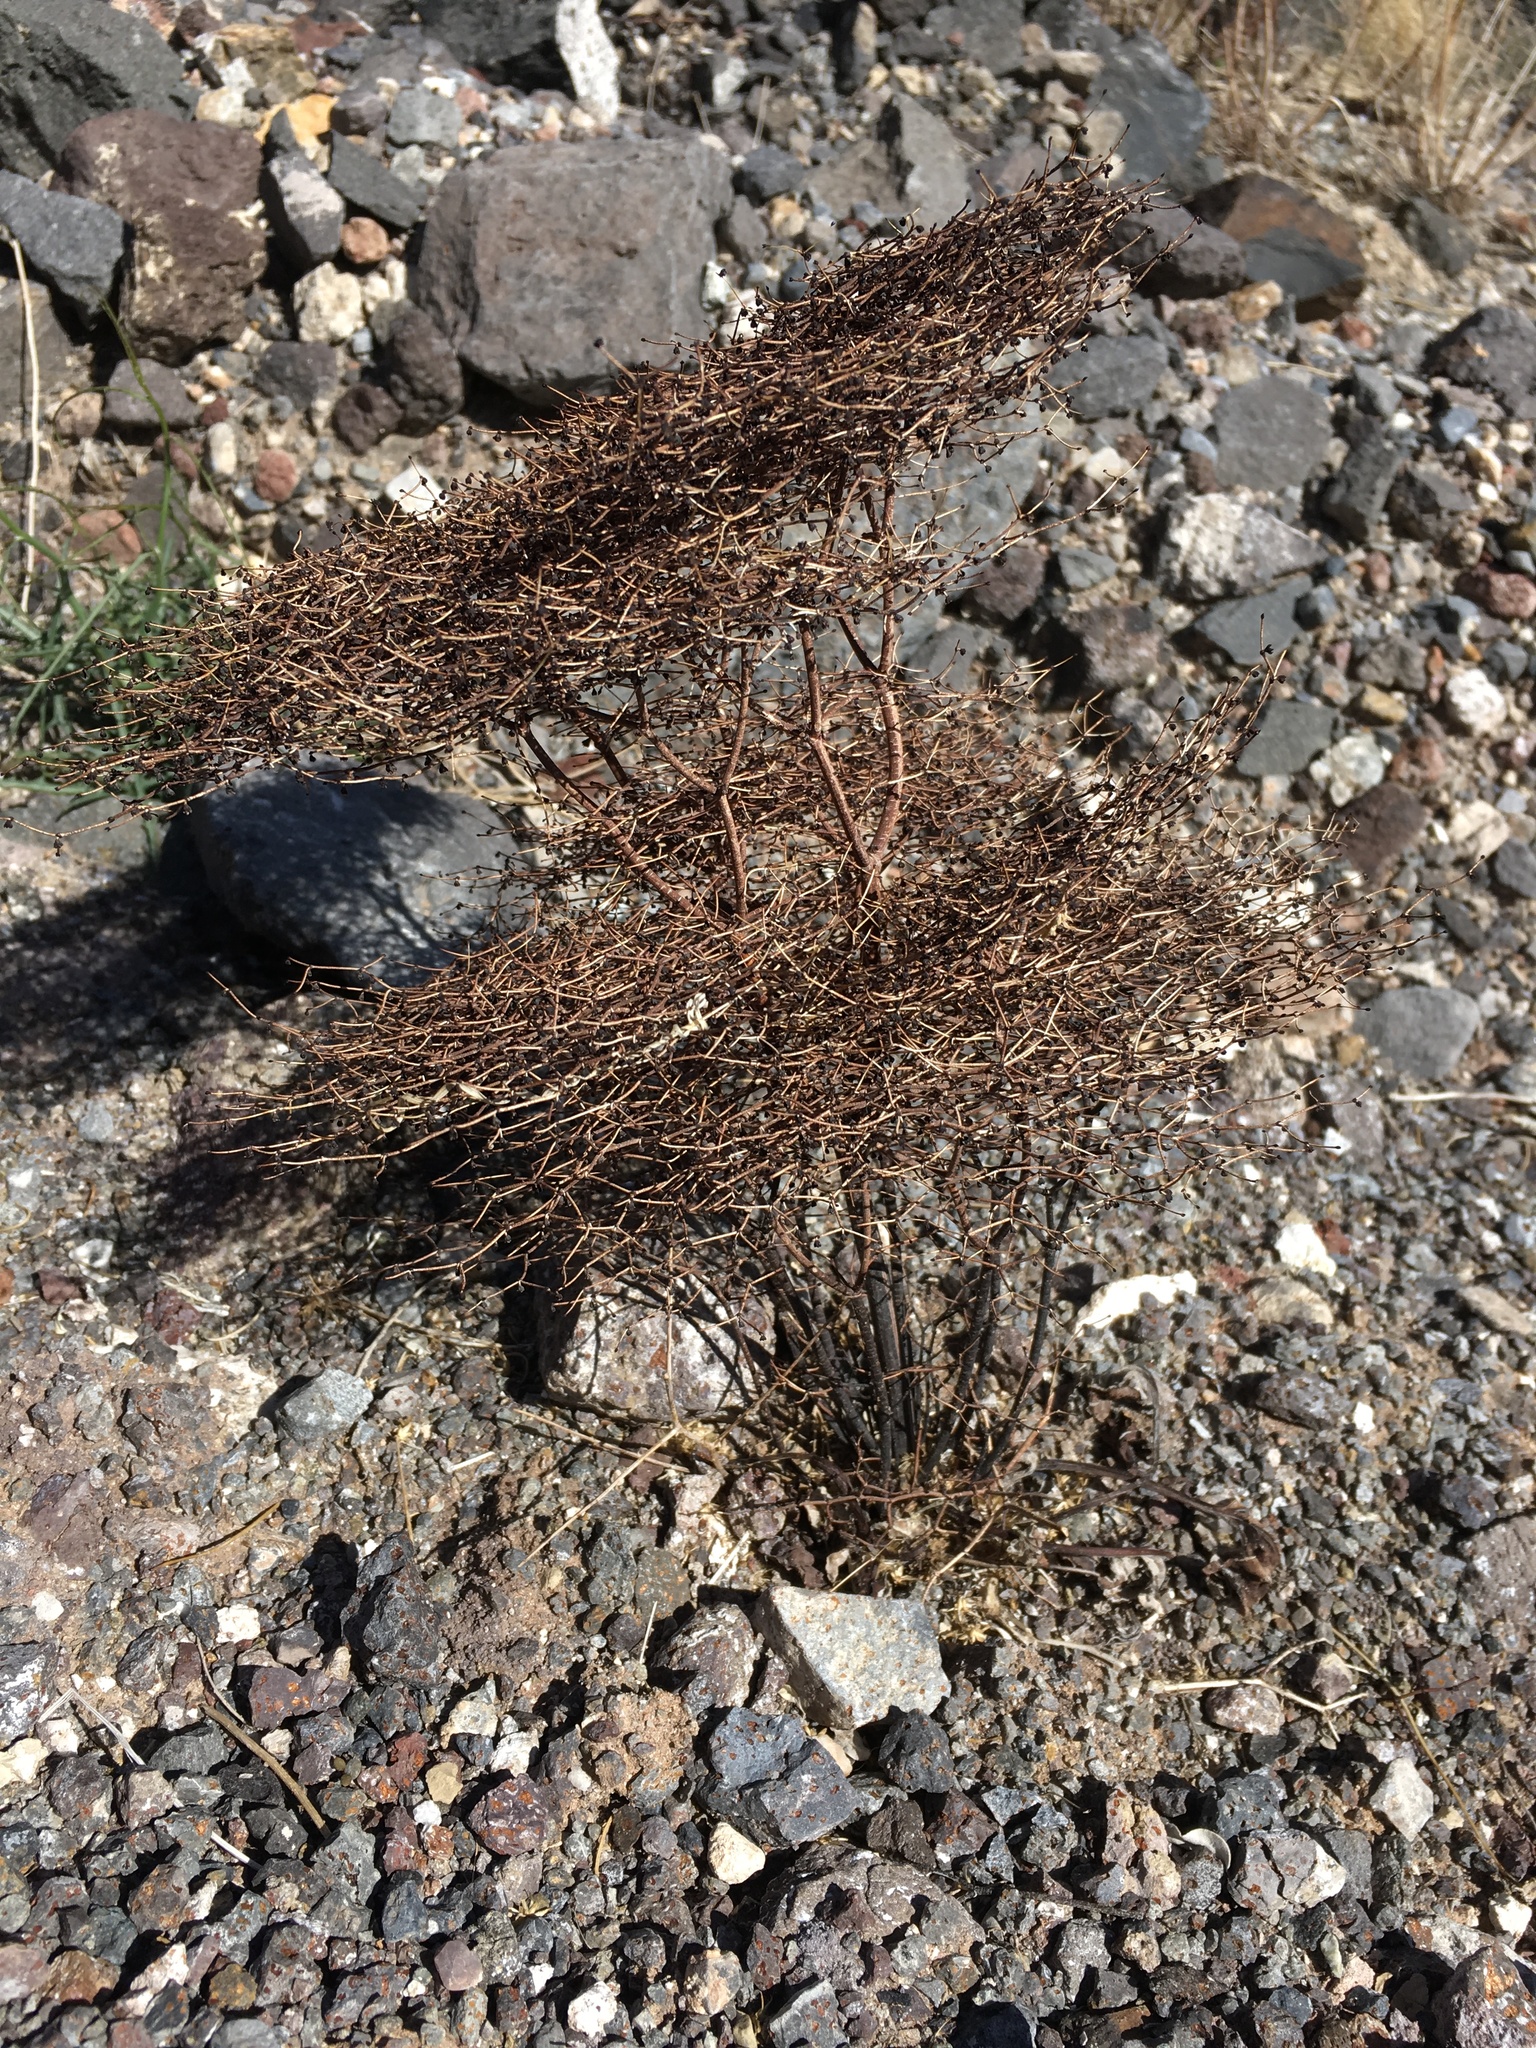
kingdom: Plantae
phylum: Tracheophyta
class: Magnoliopsida
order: Caryophyllales
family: Polygonaceae
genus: Eriogonum
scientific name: Eriogonum rixfordii
